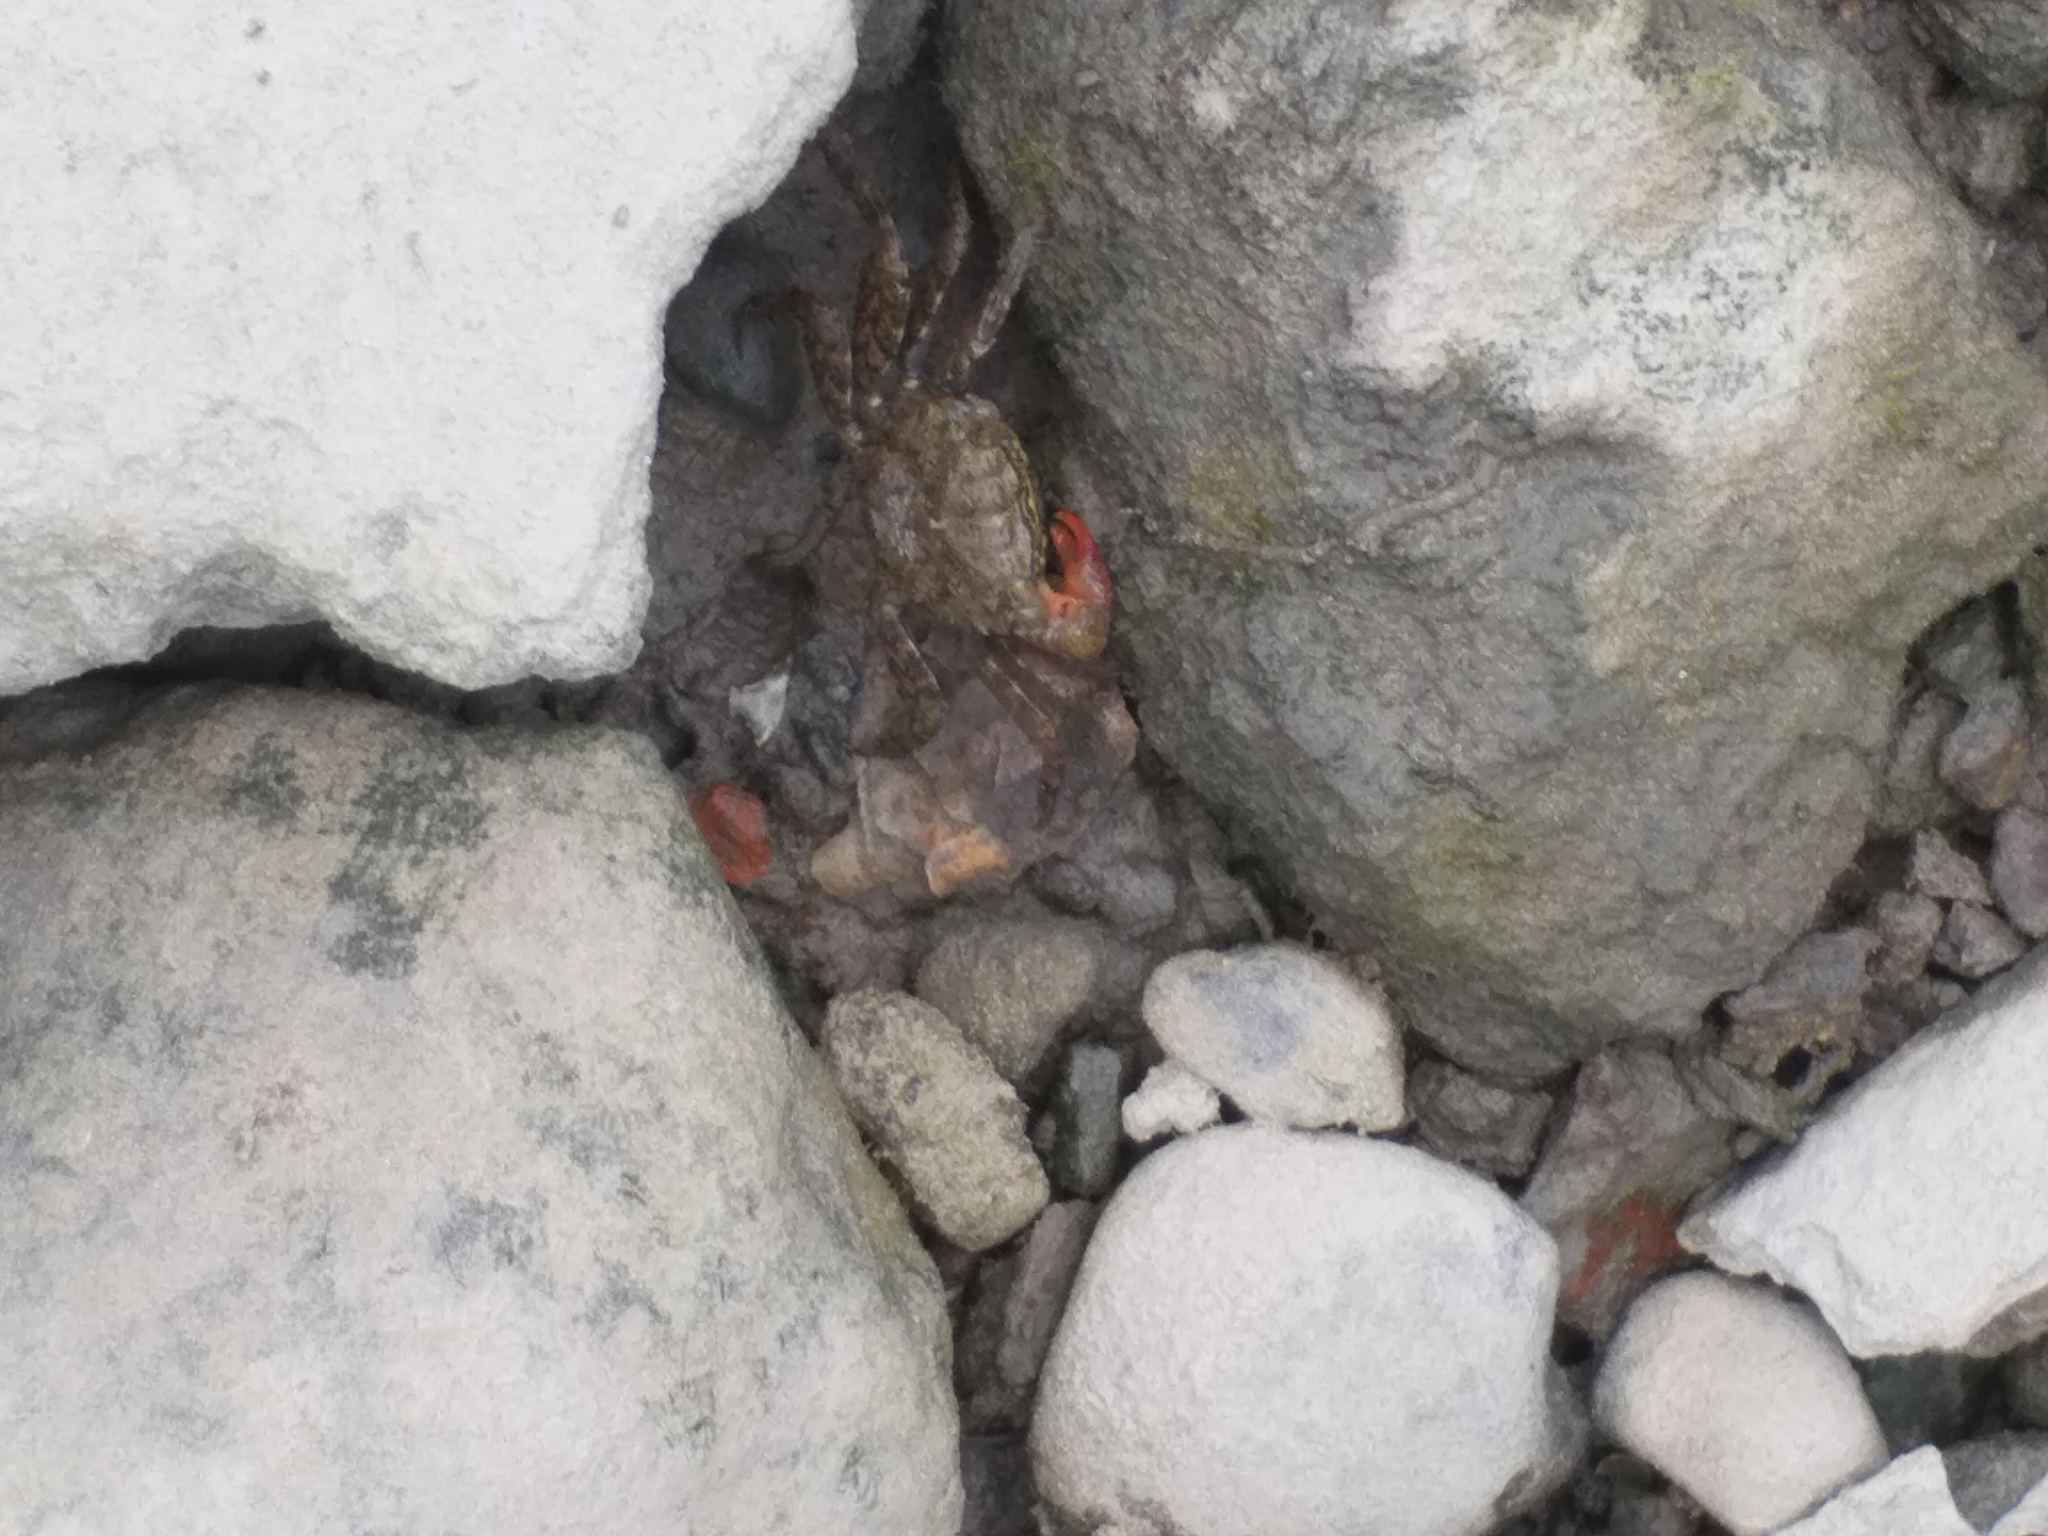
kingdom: Animalia
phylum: Arthropoda
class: Malacostraca
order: Decapoda
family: Sesarmidae
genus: Parasesarma
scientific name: Parasesarma bidens
